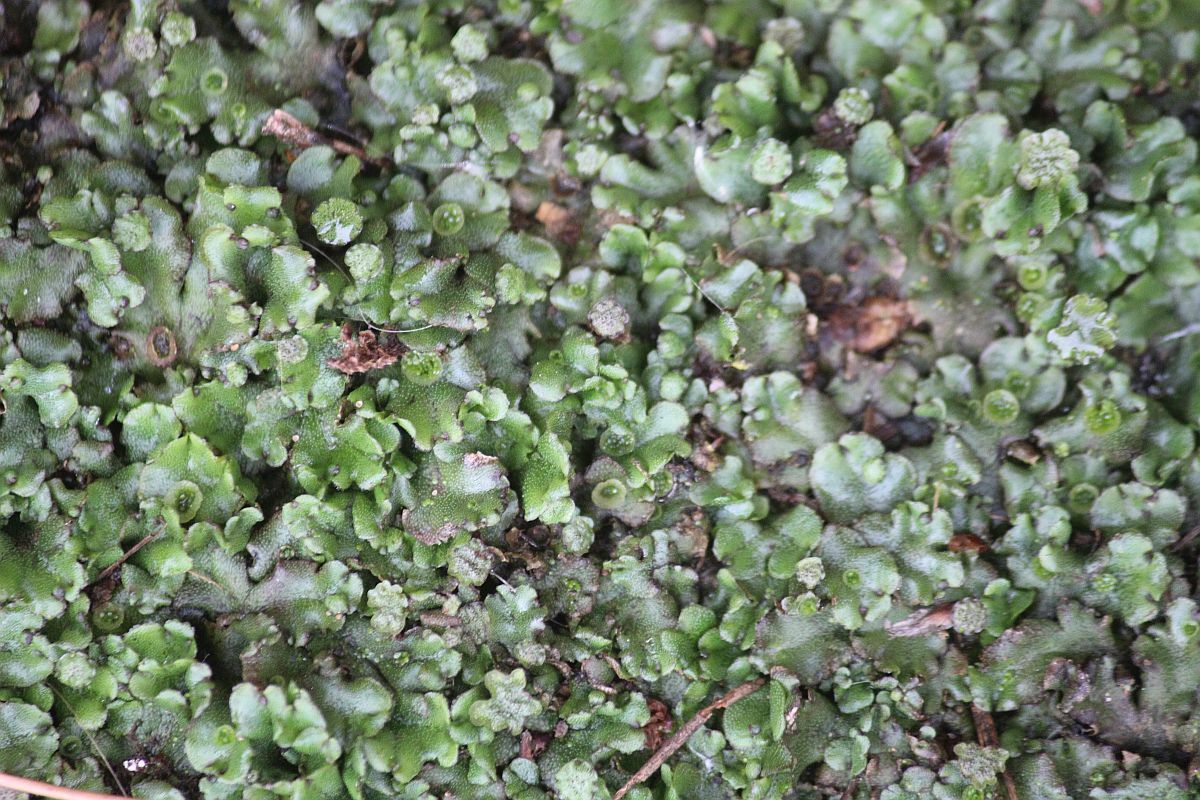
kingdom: Plantae
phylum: Marchantiophyta
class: Marchantiopsida
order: Marchantiales
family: Marchantiaceae
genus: Marchantia
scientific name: Marchantia polymorpha
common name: Common liverwort
